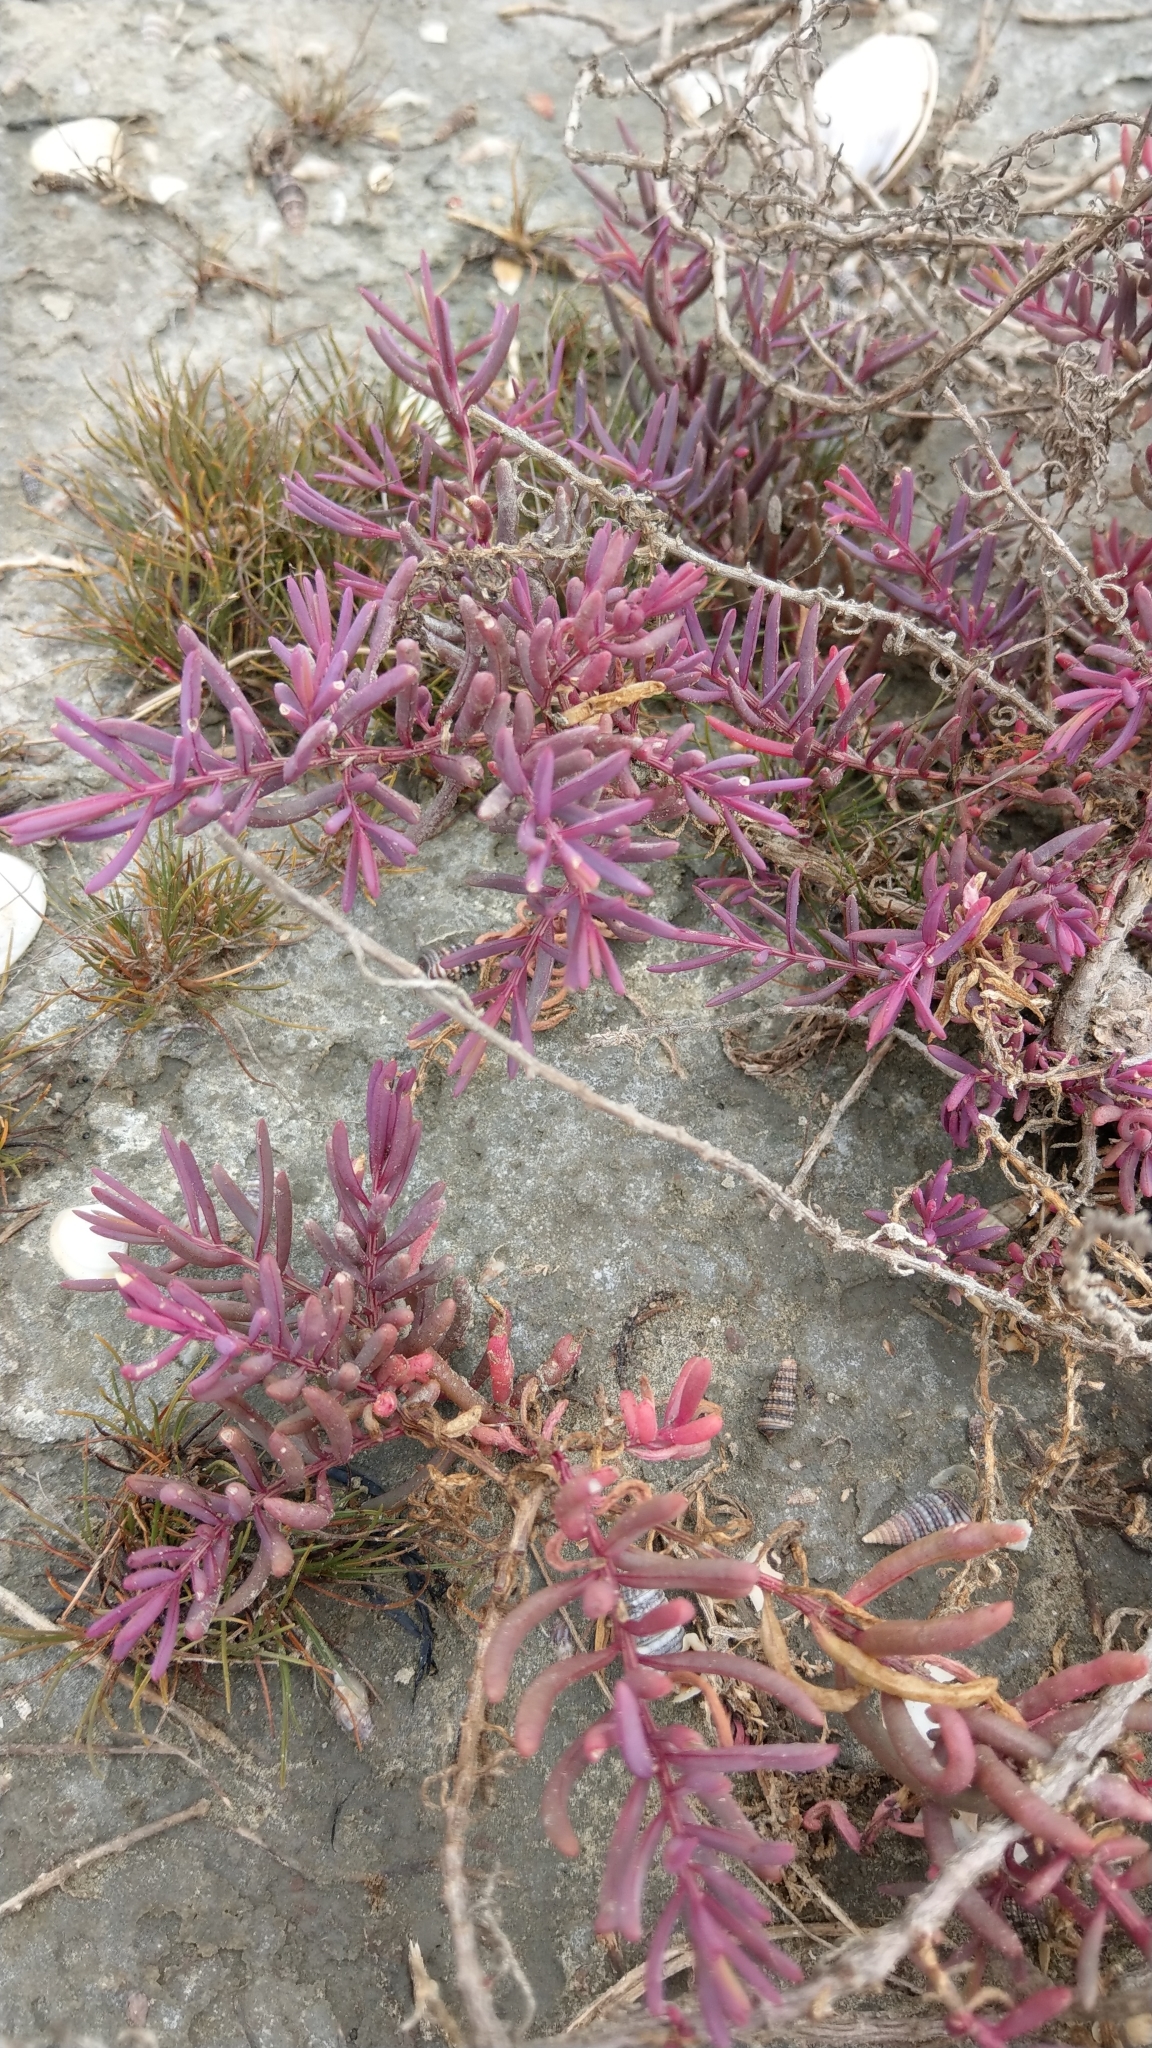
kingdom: Plantae
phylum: Tracheophyta
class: Magnoliopsida
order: Caryophyllales
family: Amaranthaceae
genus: Suaeda
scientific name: Suaeda maritima
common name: Annual sea-blite
